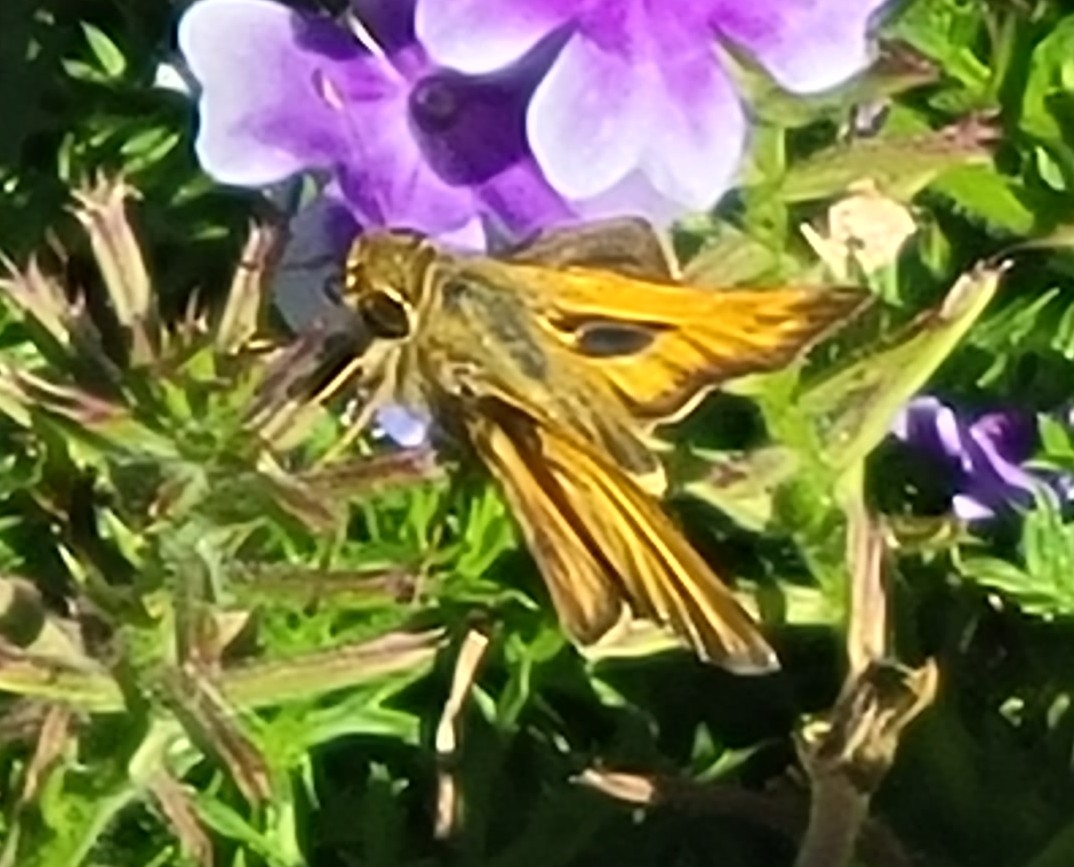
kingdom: Animalia
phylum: Arthropoda
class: Insecta
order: Lepidoptera
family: Hesperiidae
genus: Atalopedes
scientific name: Atalopedes
